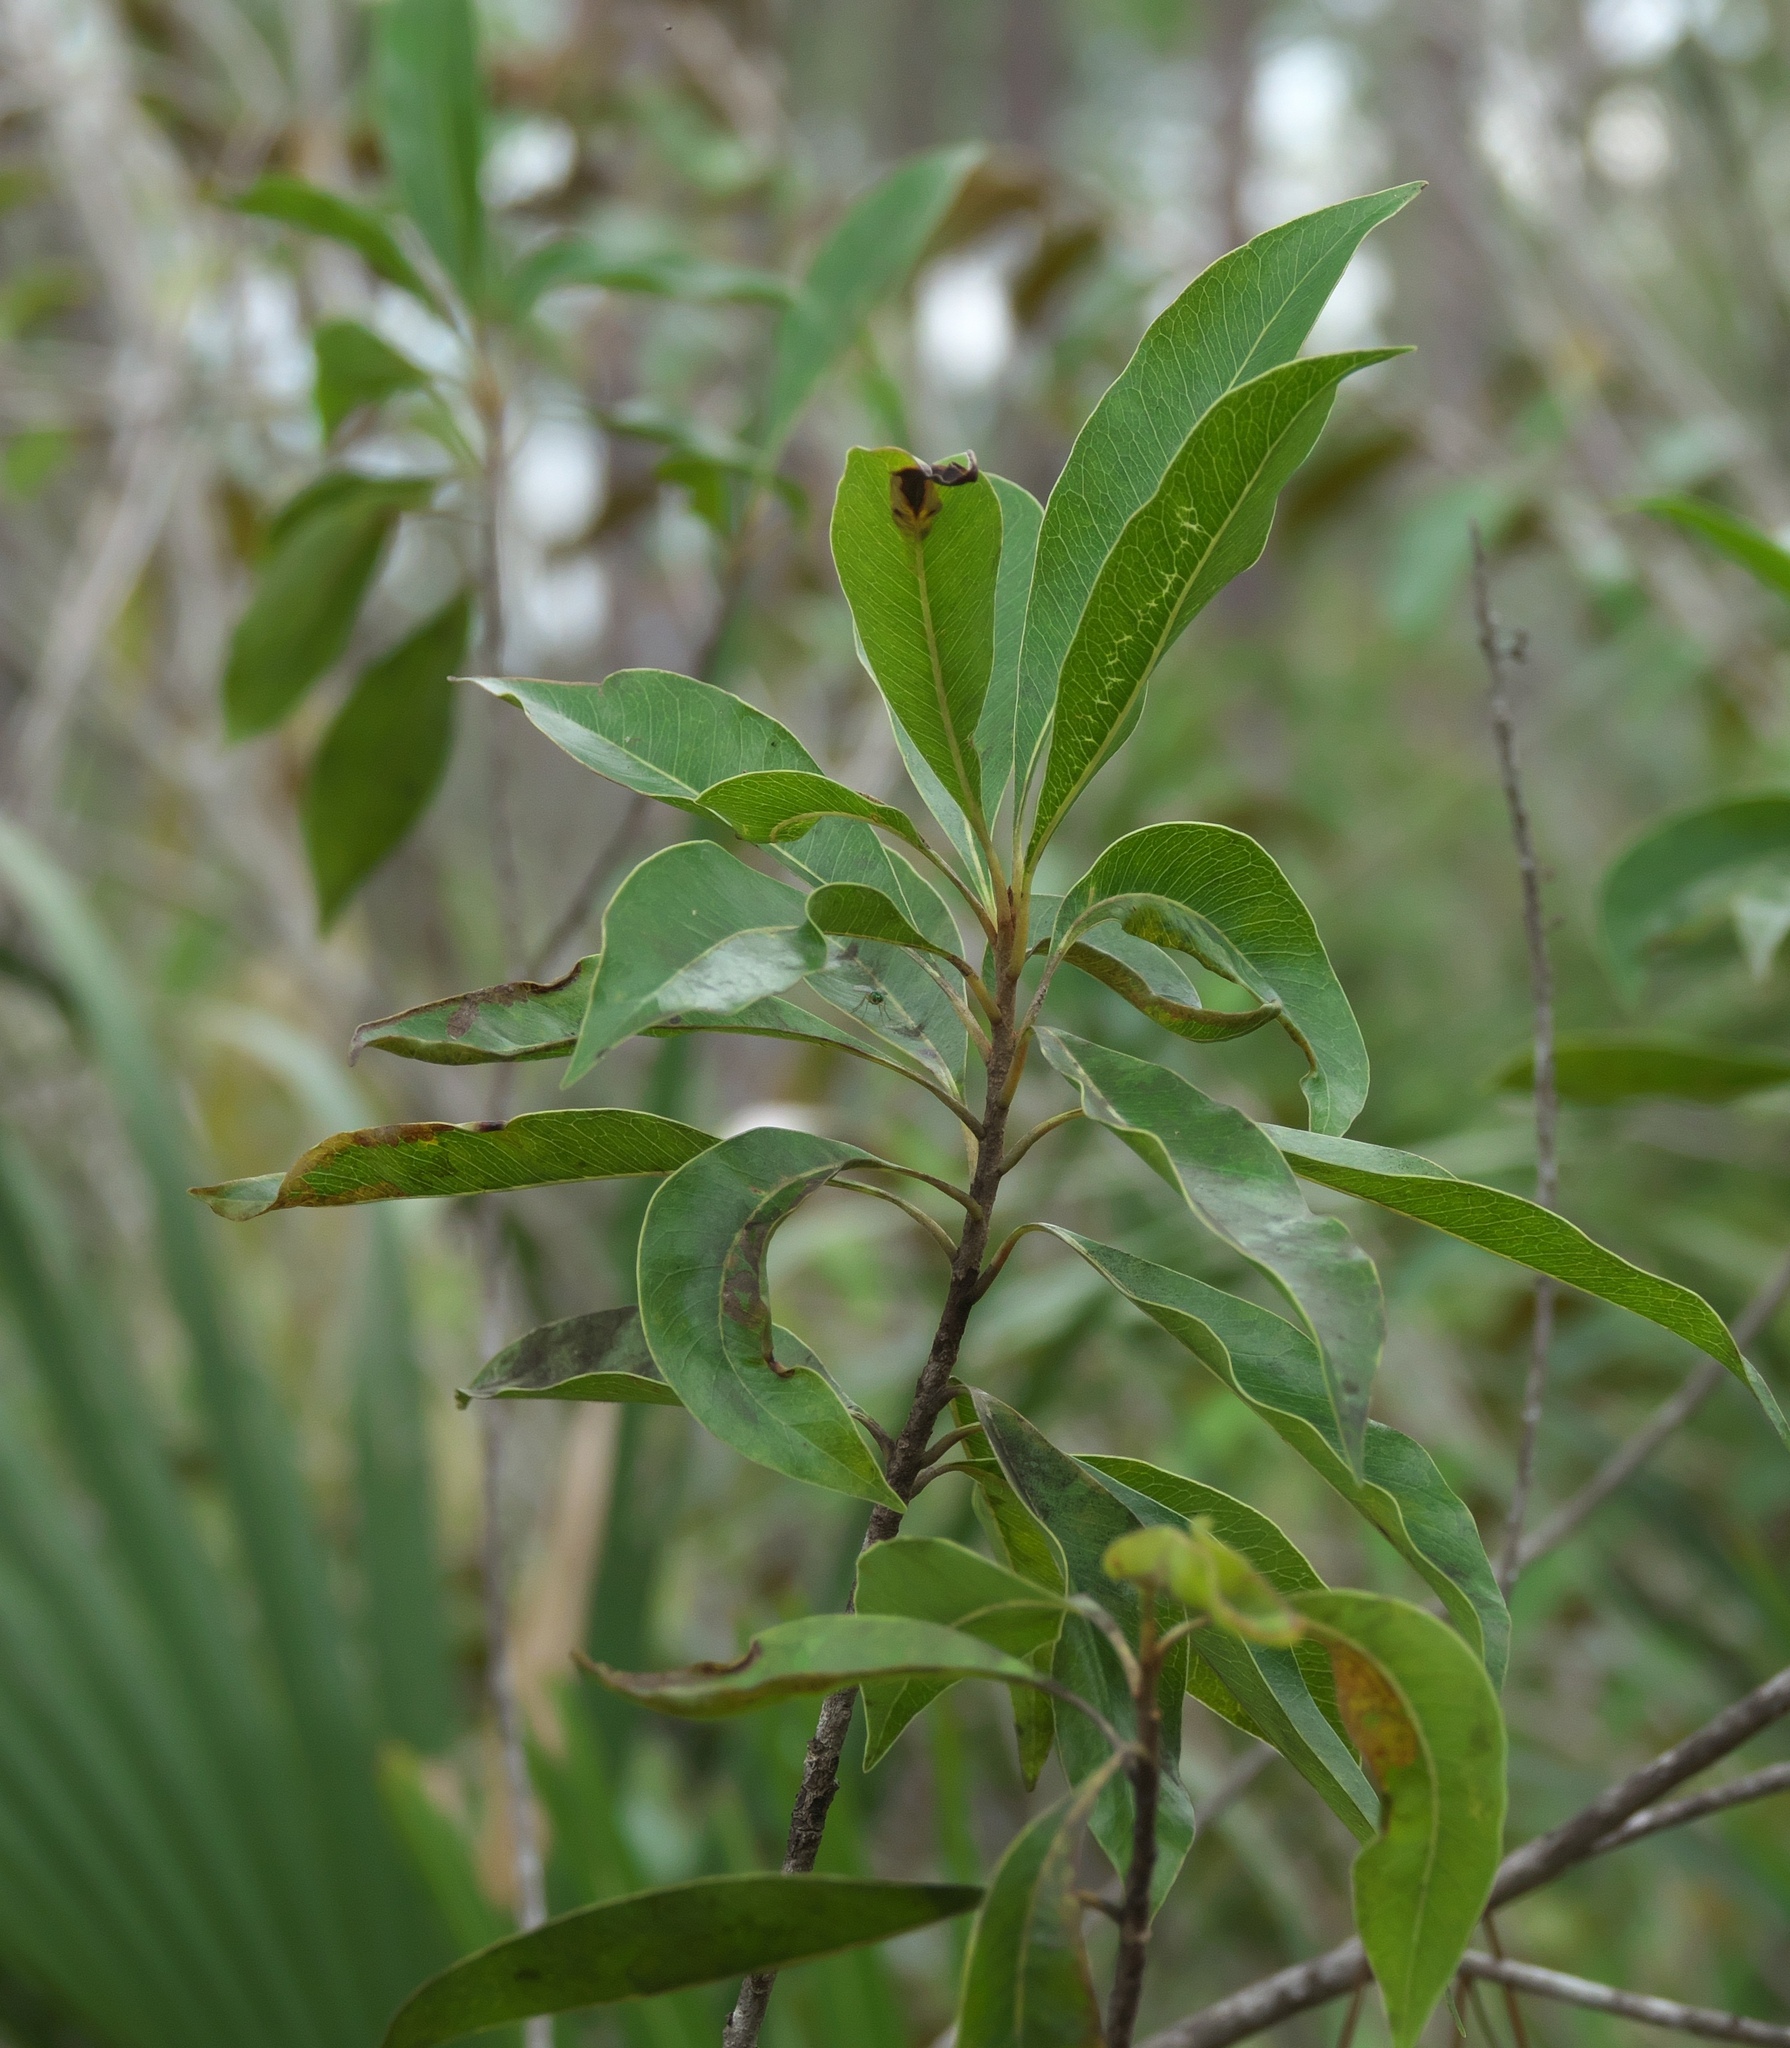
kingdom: Plantae
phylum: Tracheophyta
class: Magnoliopsida
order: Ericales
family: Sapotaceae
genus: Sideroxylon
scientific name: Sideroxylon salicifolium
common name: White bully
